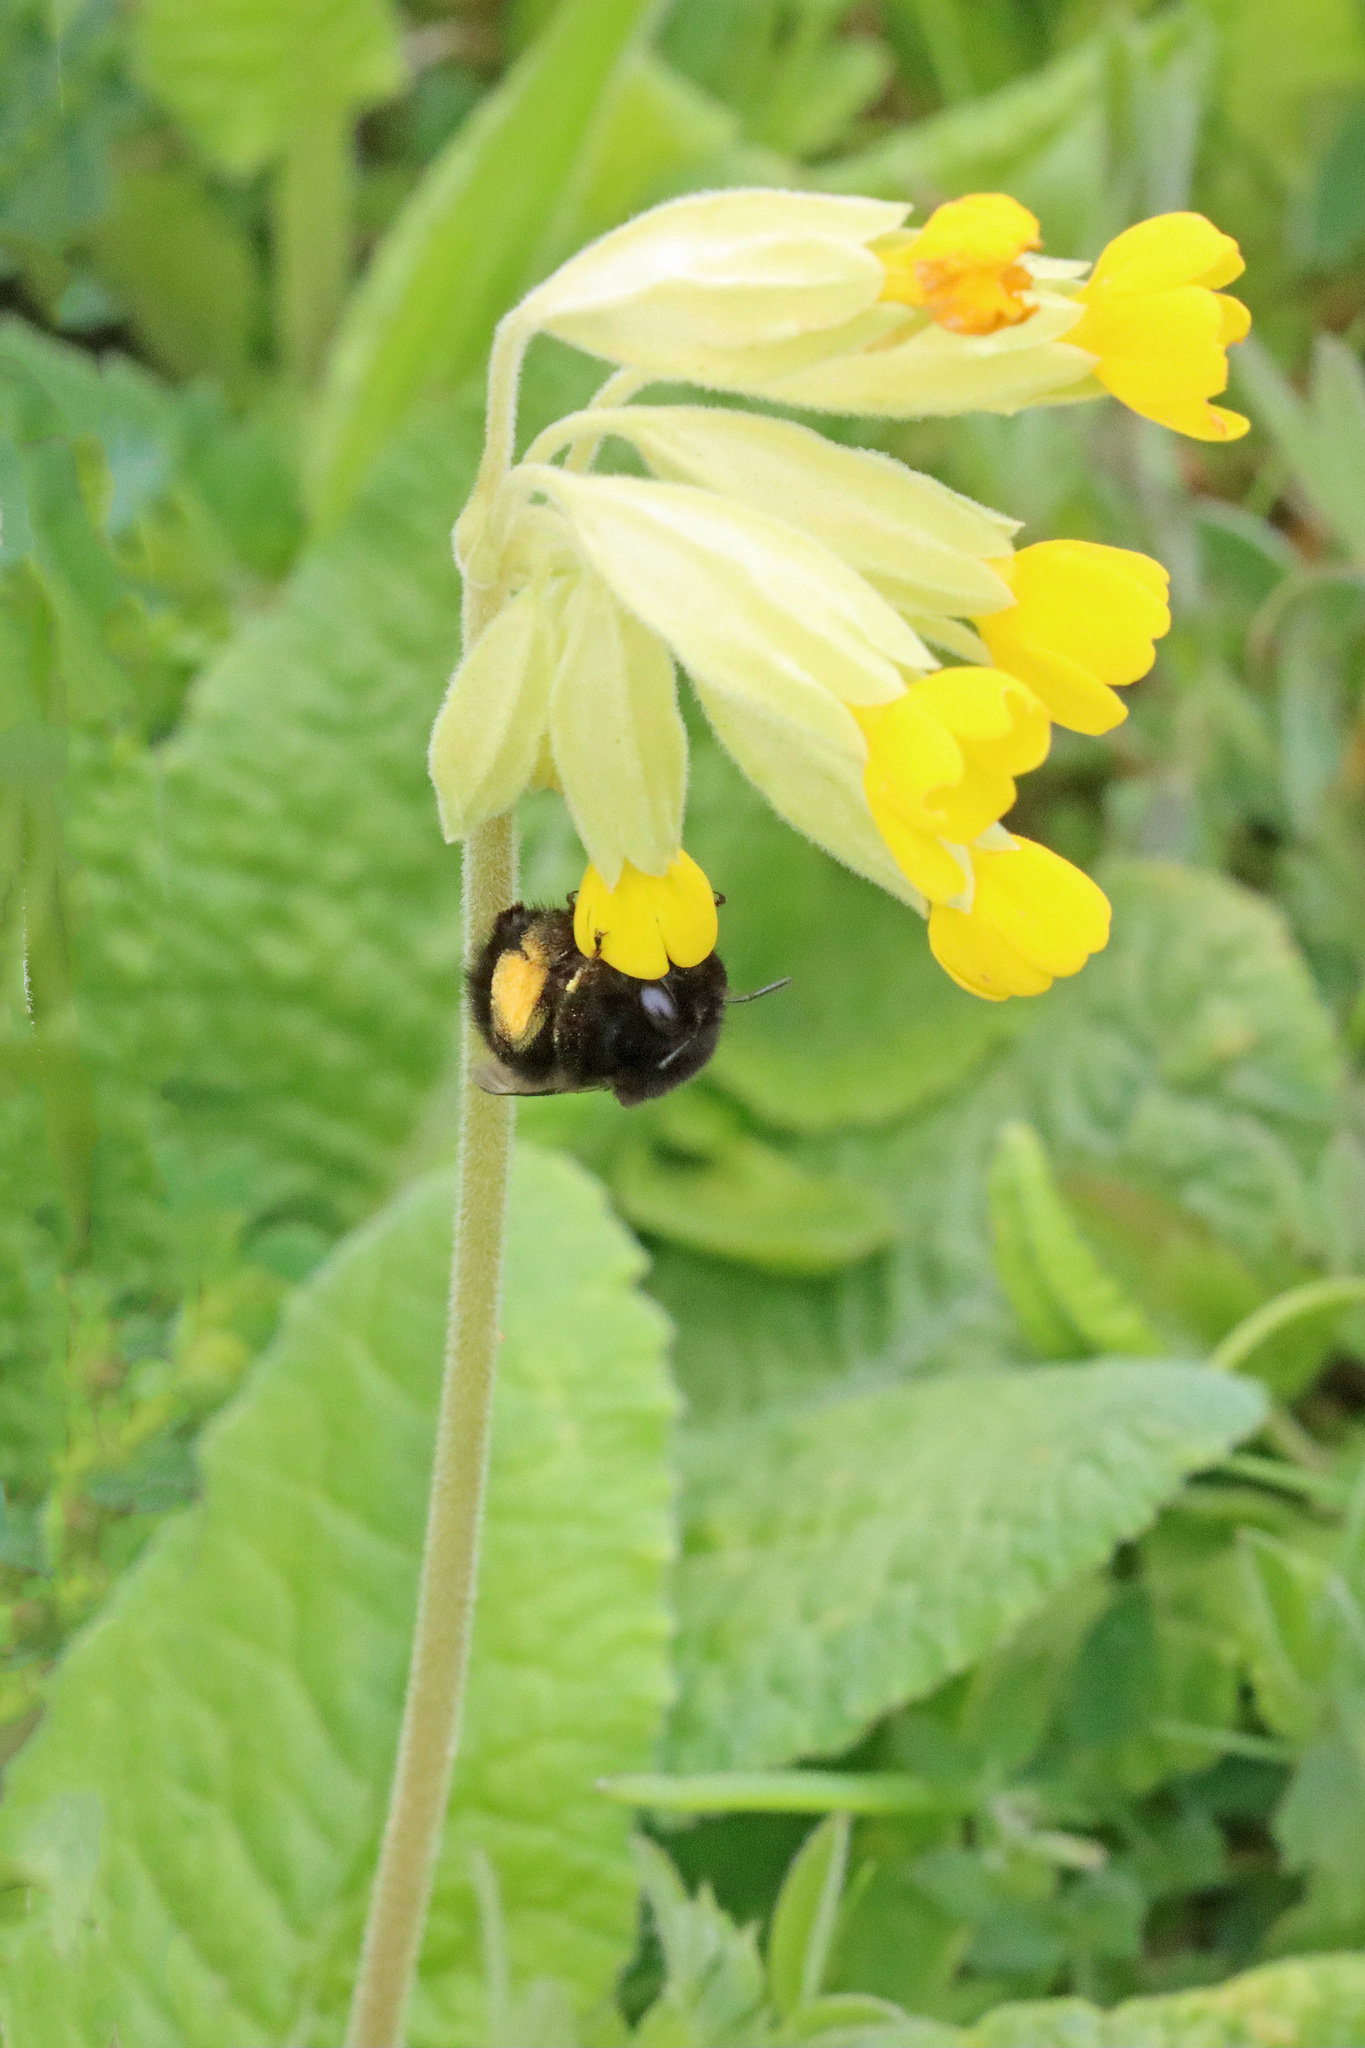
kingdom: Animalia
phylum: Arthropoda
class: Insecta
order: Hymenoptera
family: Apidae
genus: Anthophora
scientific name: Anthophora plumipes
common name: Hairy-footed flower bee
